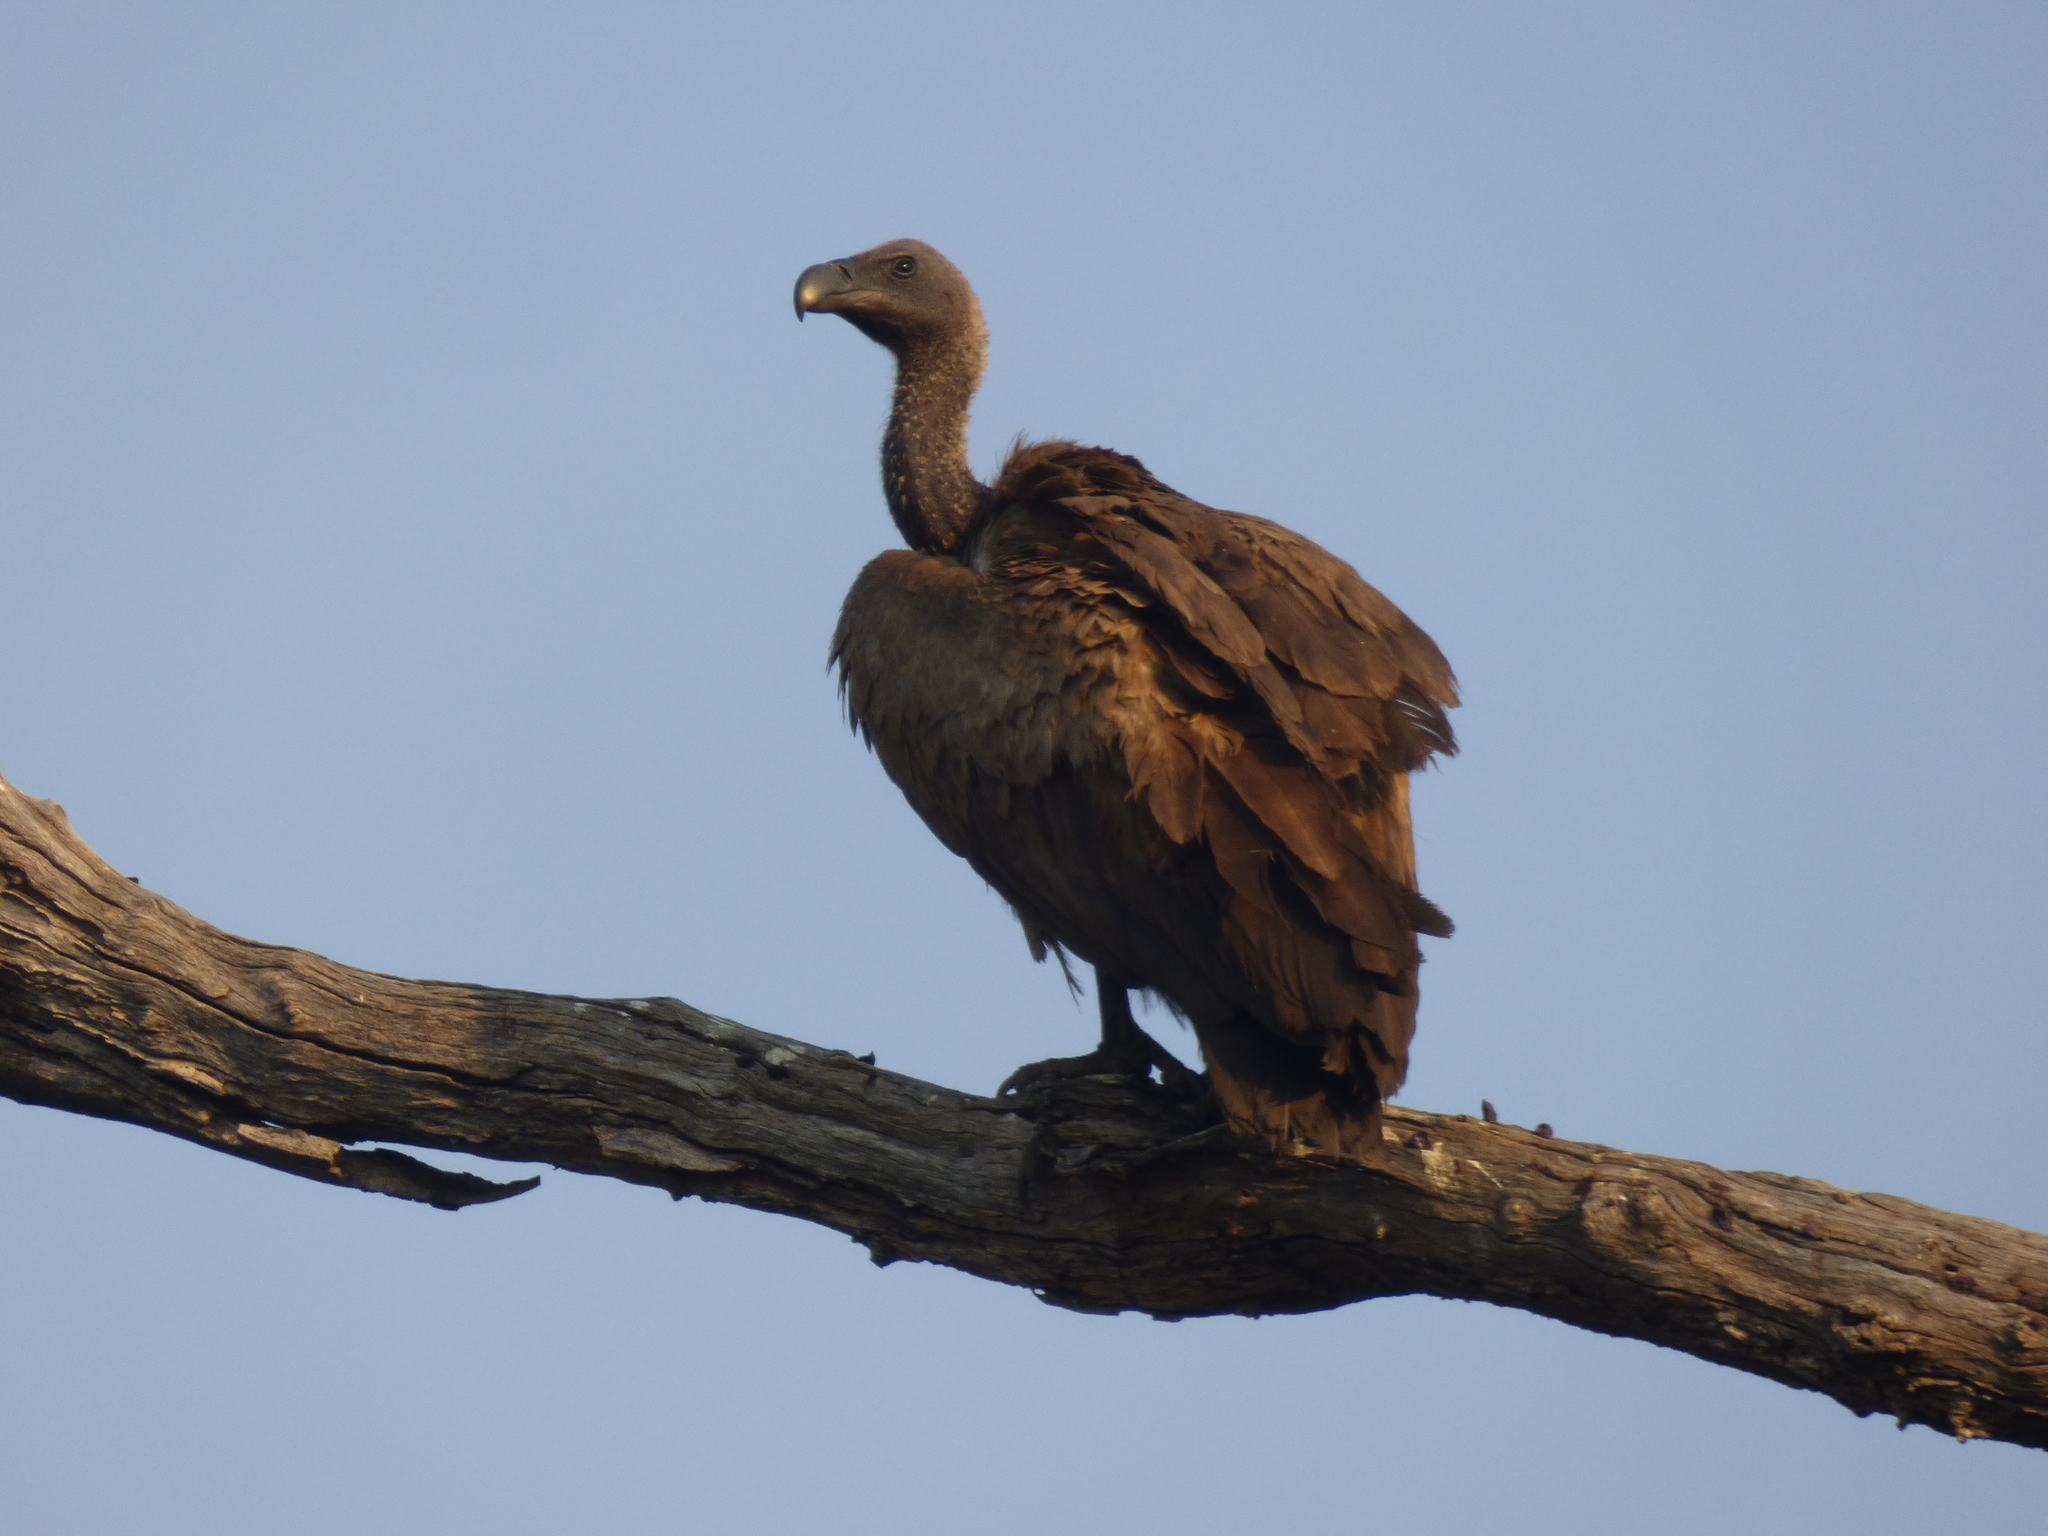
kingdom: Animalia
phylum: Chordata
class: Aves
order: Accipitriformes
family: Accipitridae
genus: Gyps
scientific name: Gyps africanus
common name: White-backed vulture
